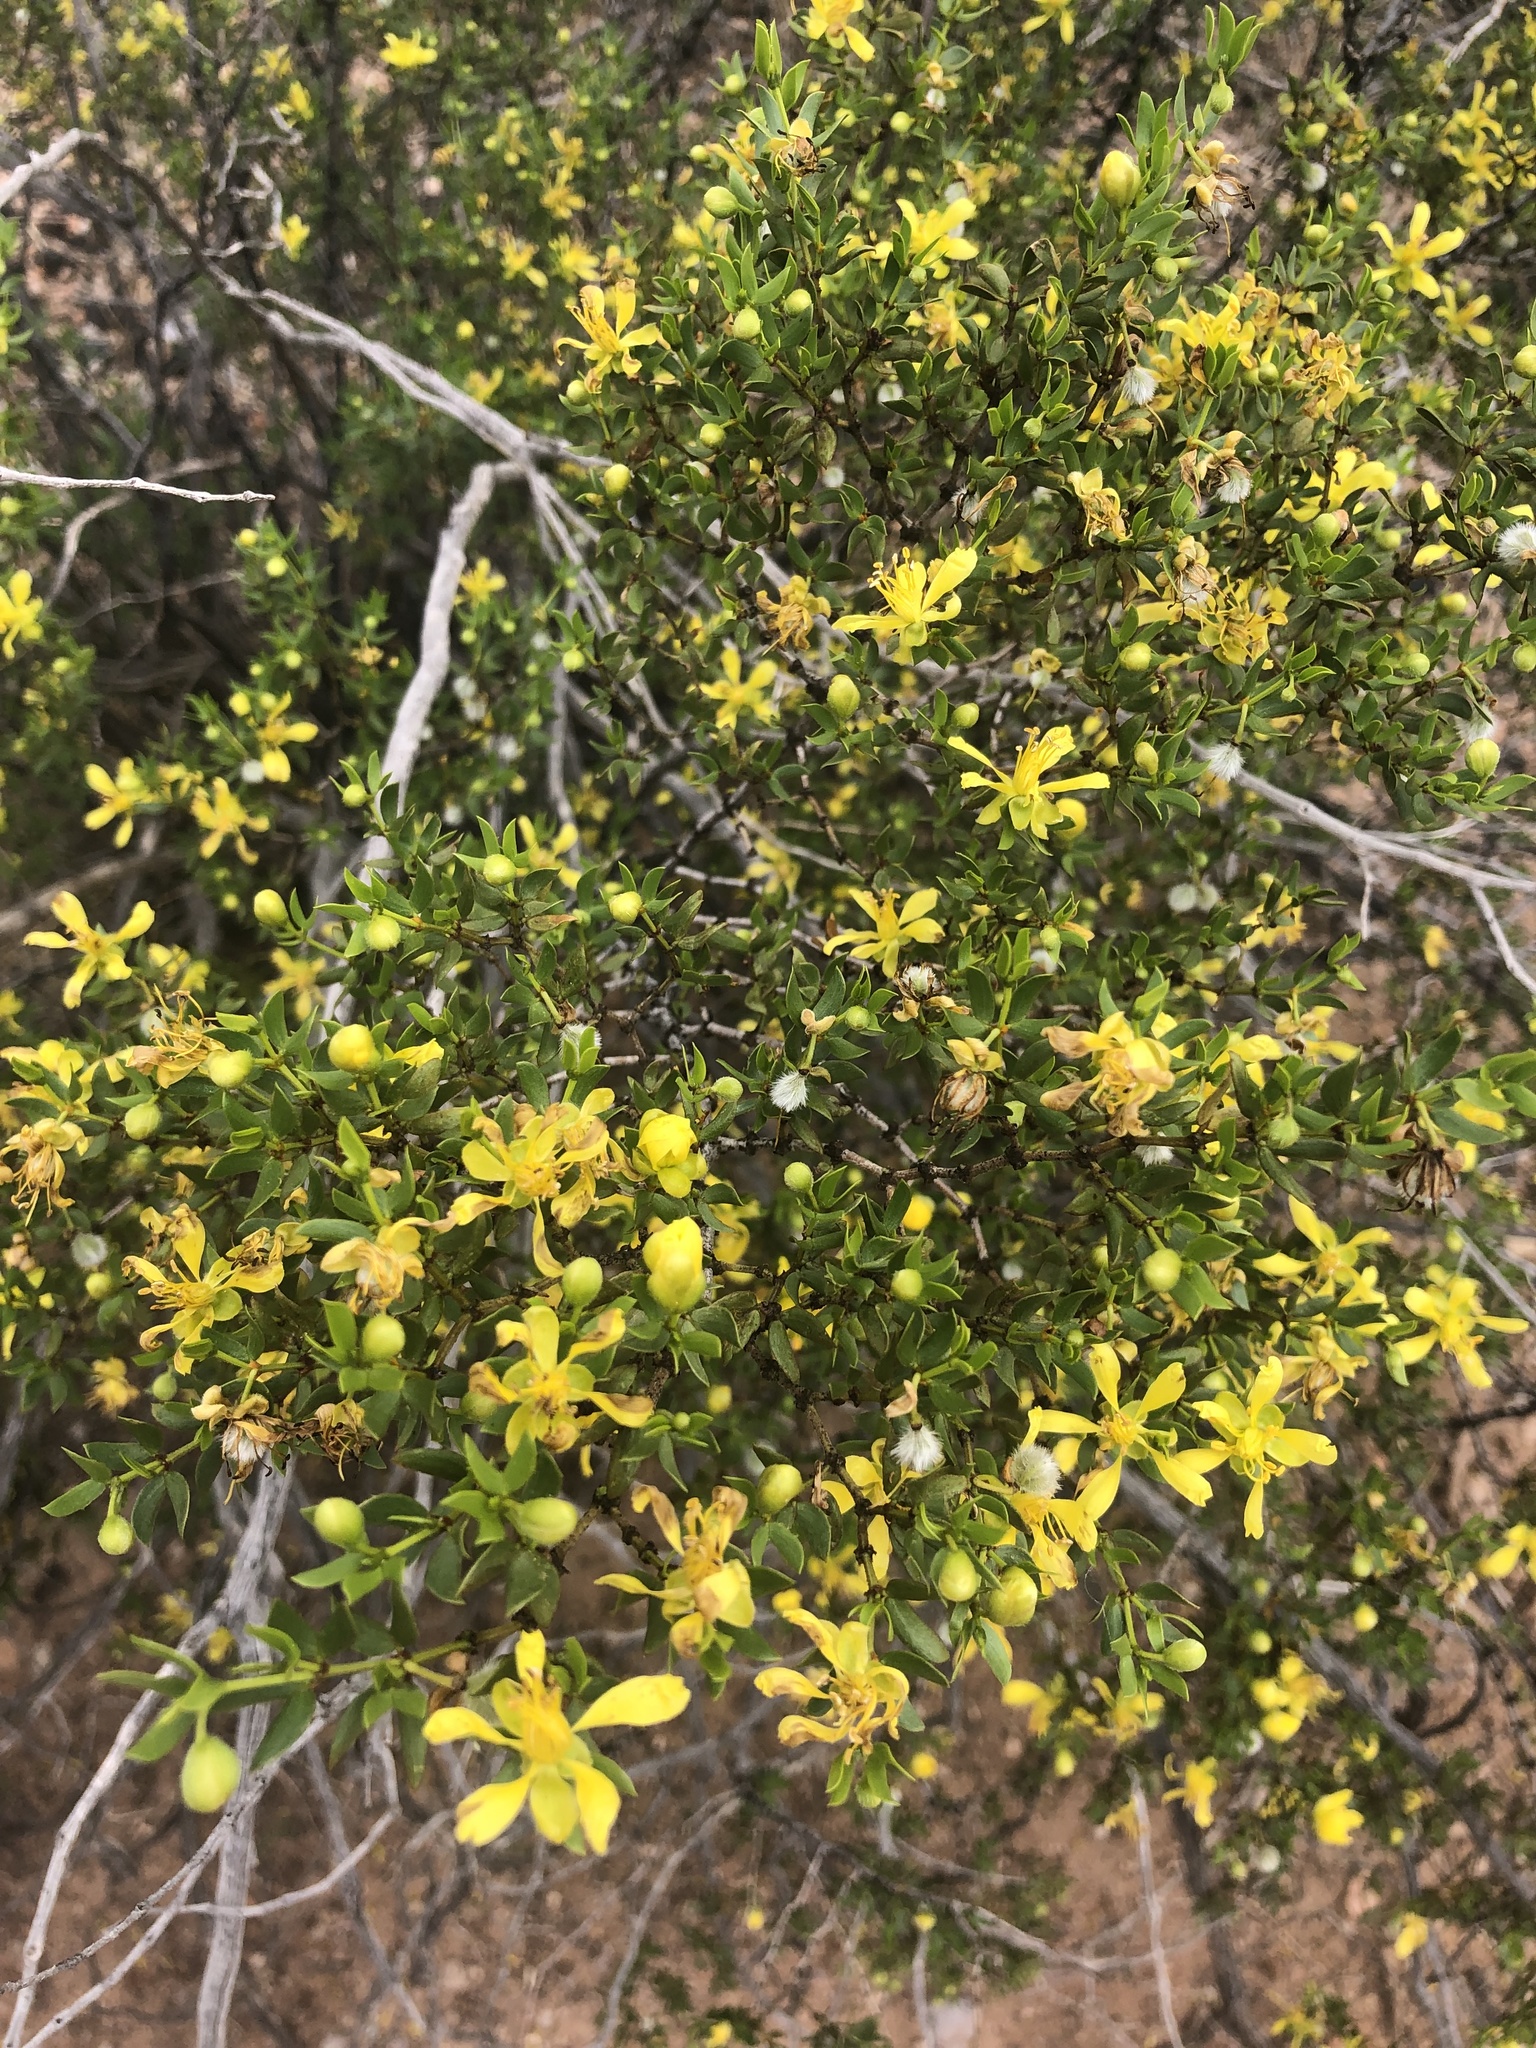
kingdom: Plantae
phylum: Tracheophyta
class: Magnoliopsida
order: Zygophyllales
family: Zygophyllaceae
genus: Larrea
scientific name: Larrea tridentata
